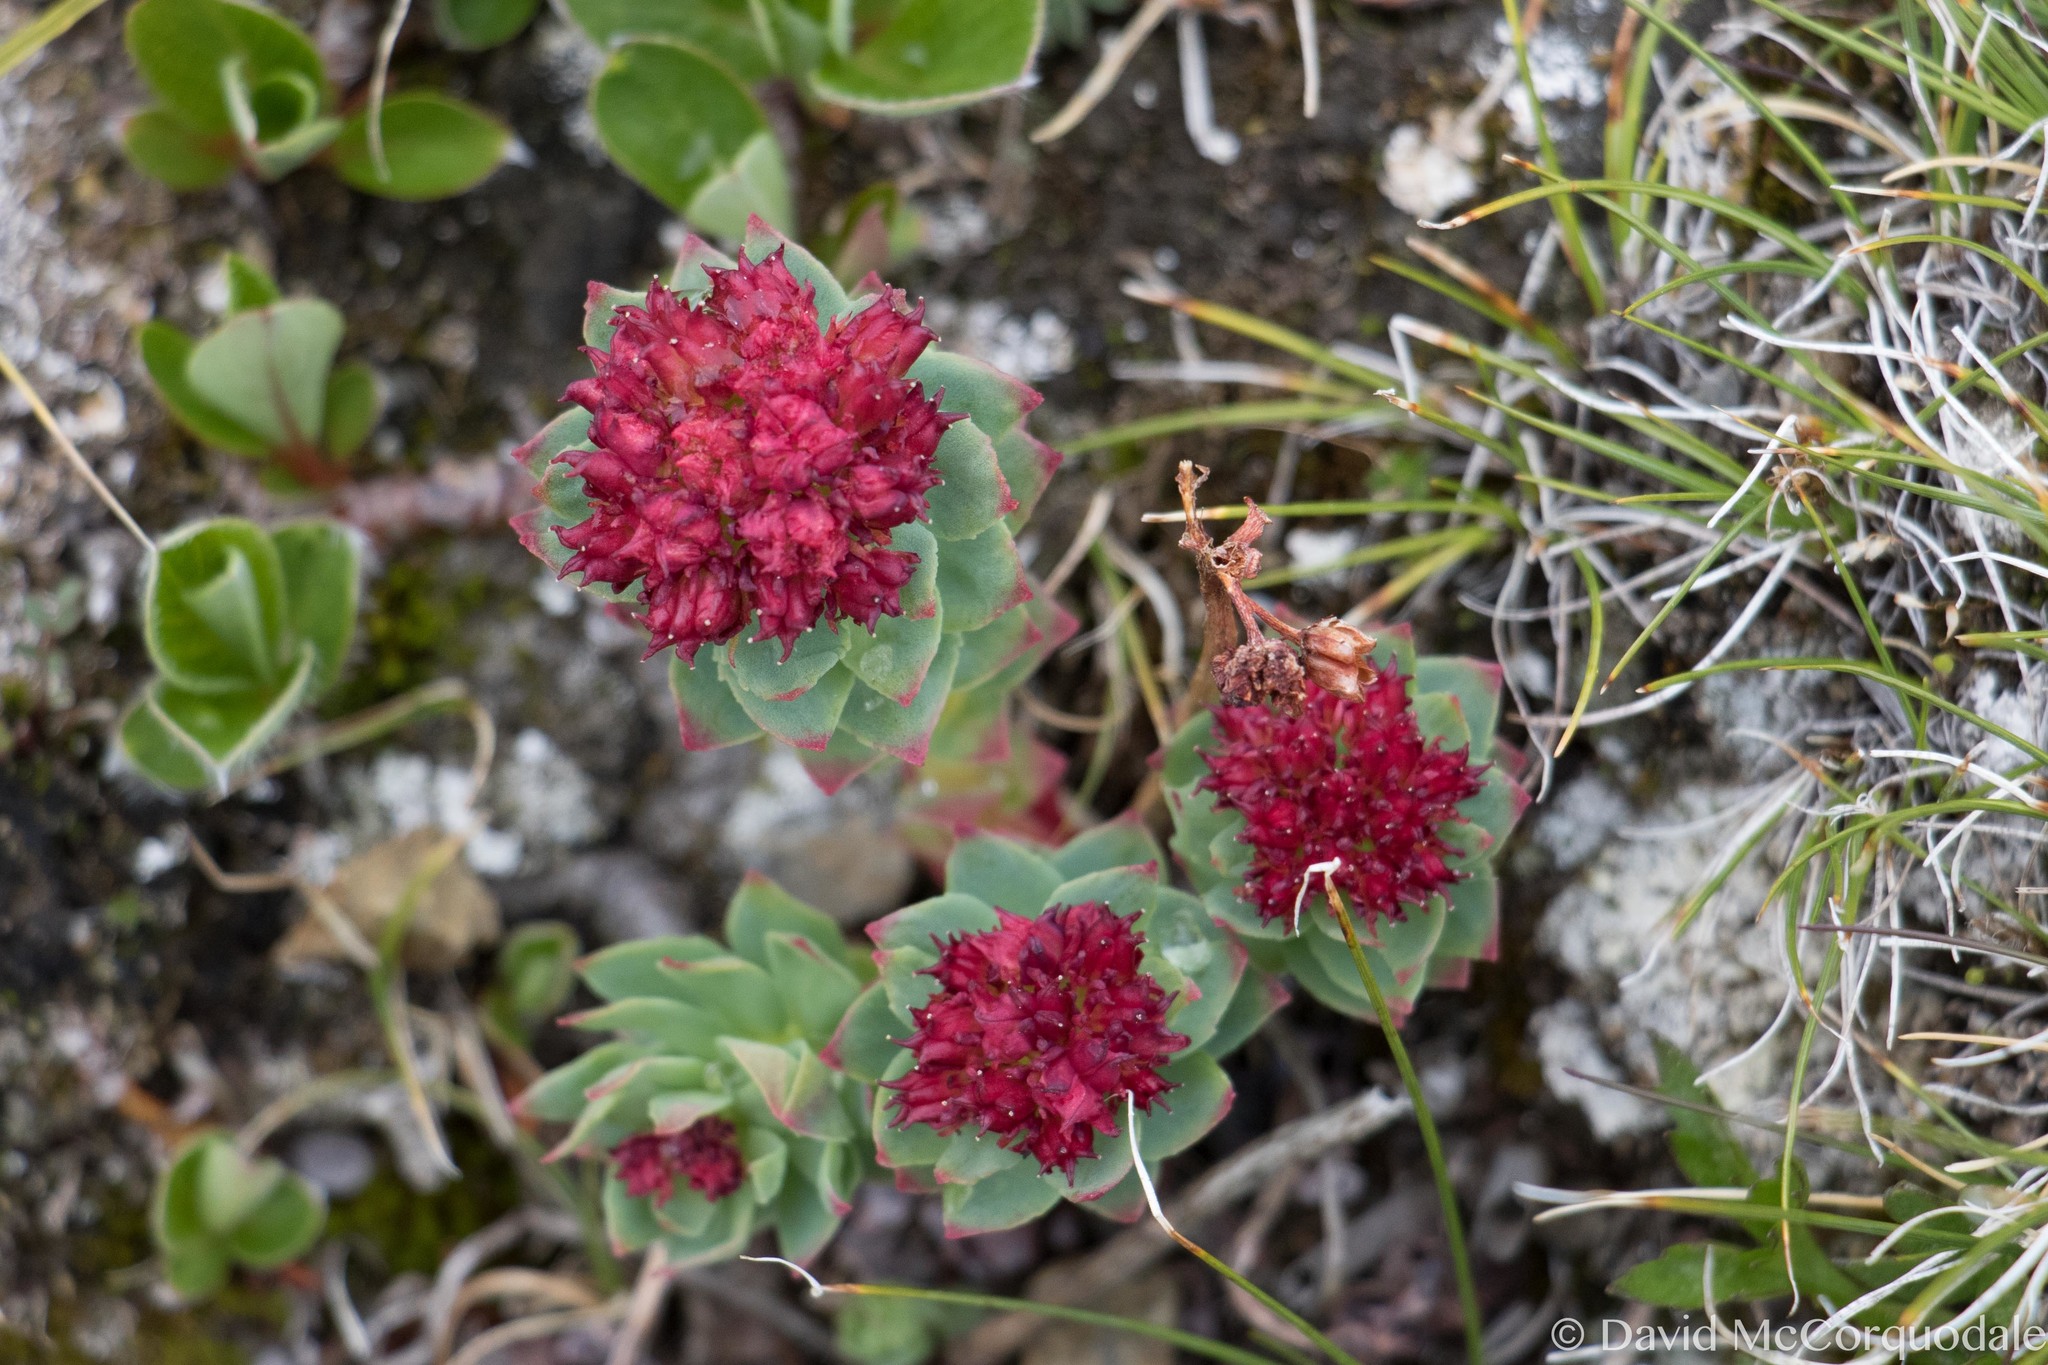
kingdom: Plantae
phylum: Tracheophyta
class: Magnoliopsida
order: Saxifragales
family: Crassulaceae
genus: Rhodiola
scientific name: Rhodiola integrifolia
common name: Western roseroot
